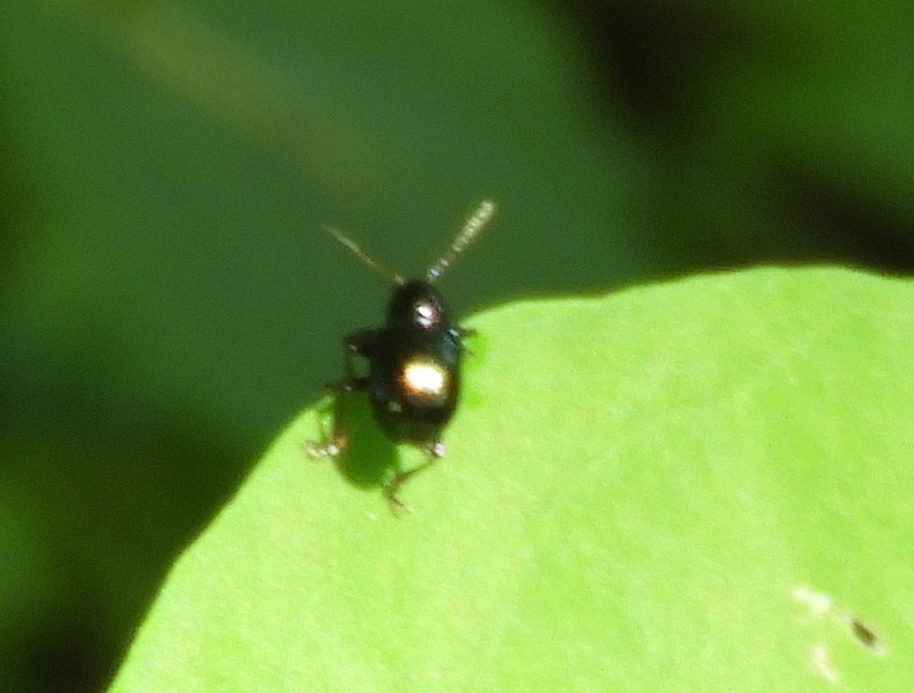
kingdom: Animalia
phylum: Arthropoda
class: Insecta
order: Coleoptera
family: Chrysomelidae
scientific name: Chrysomelidae
